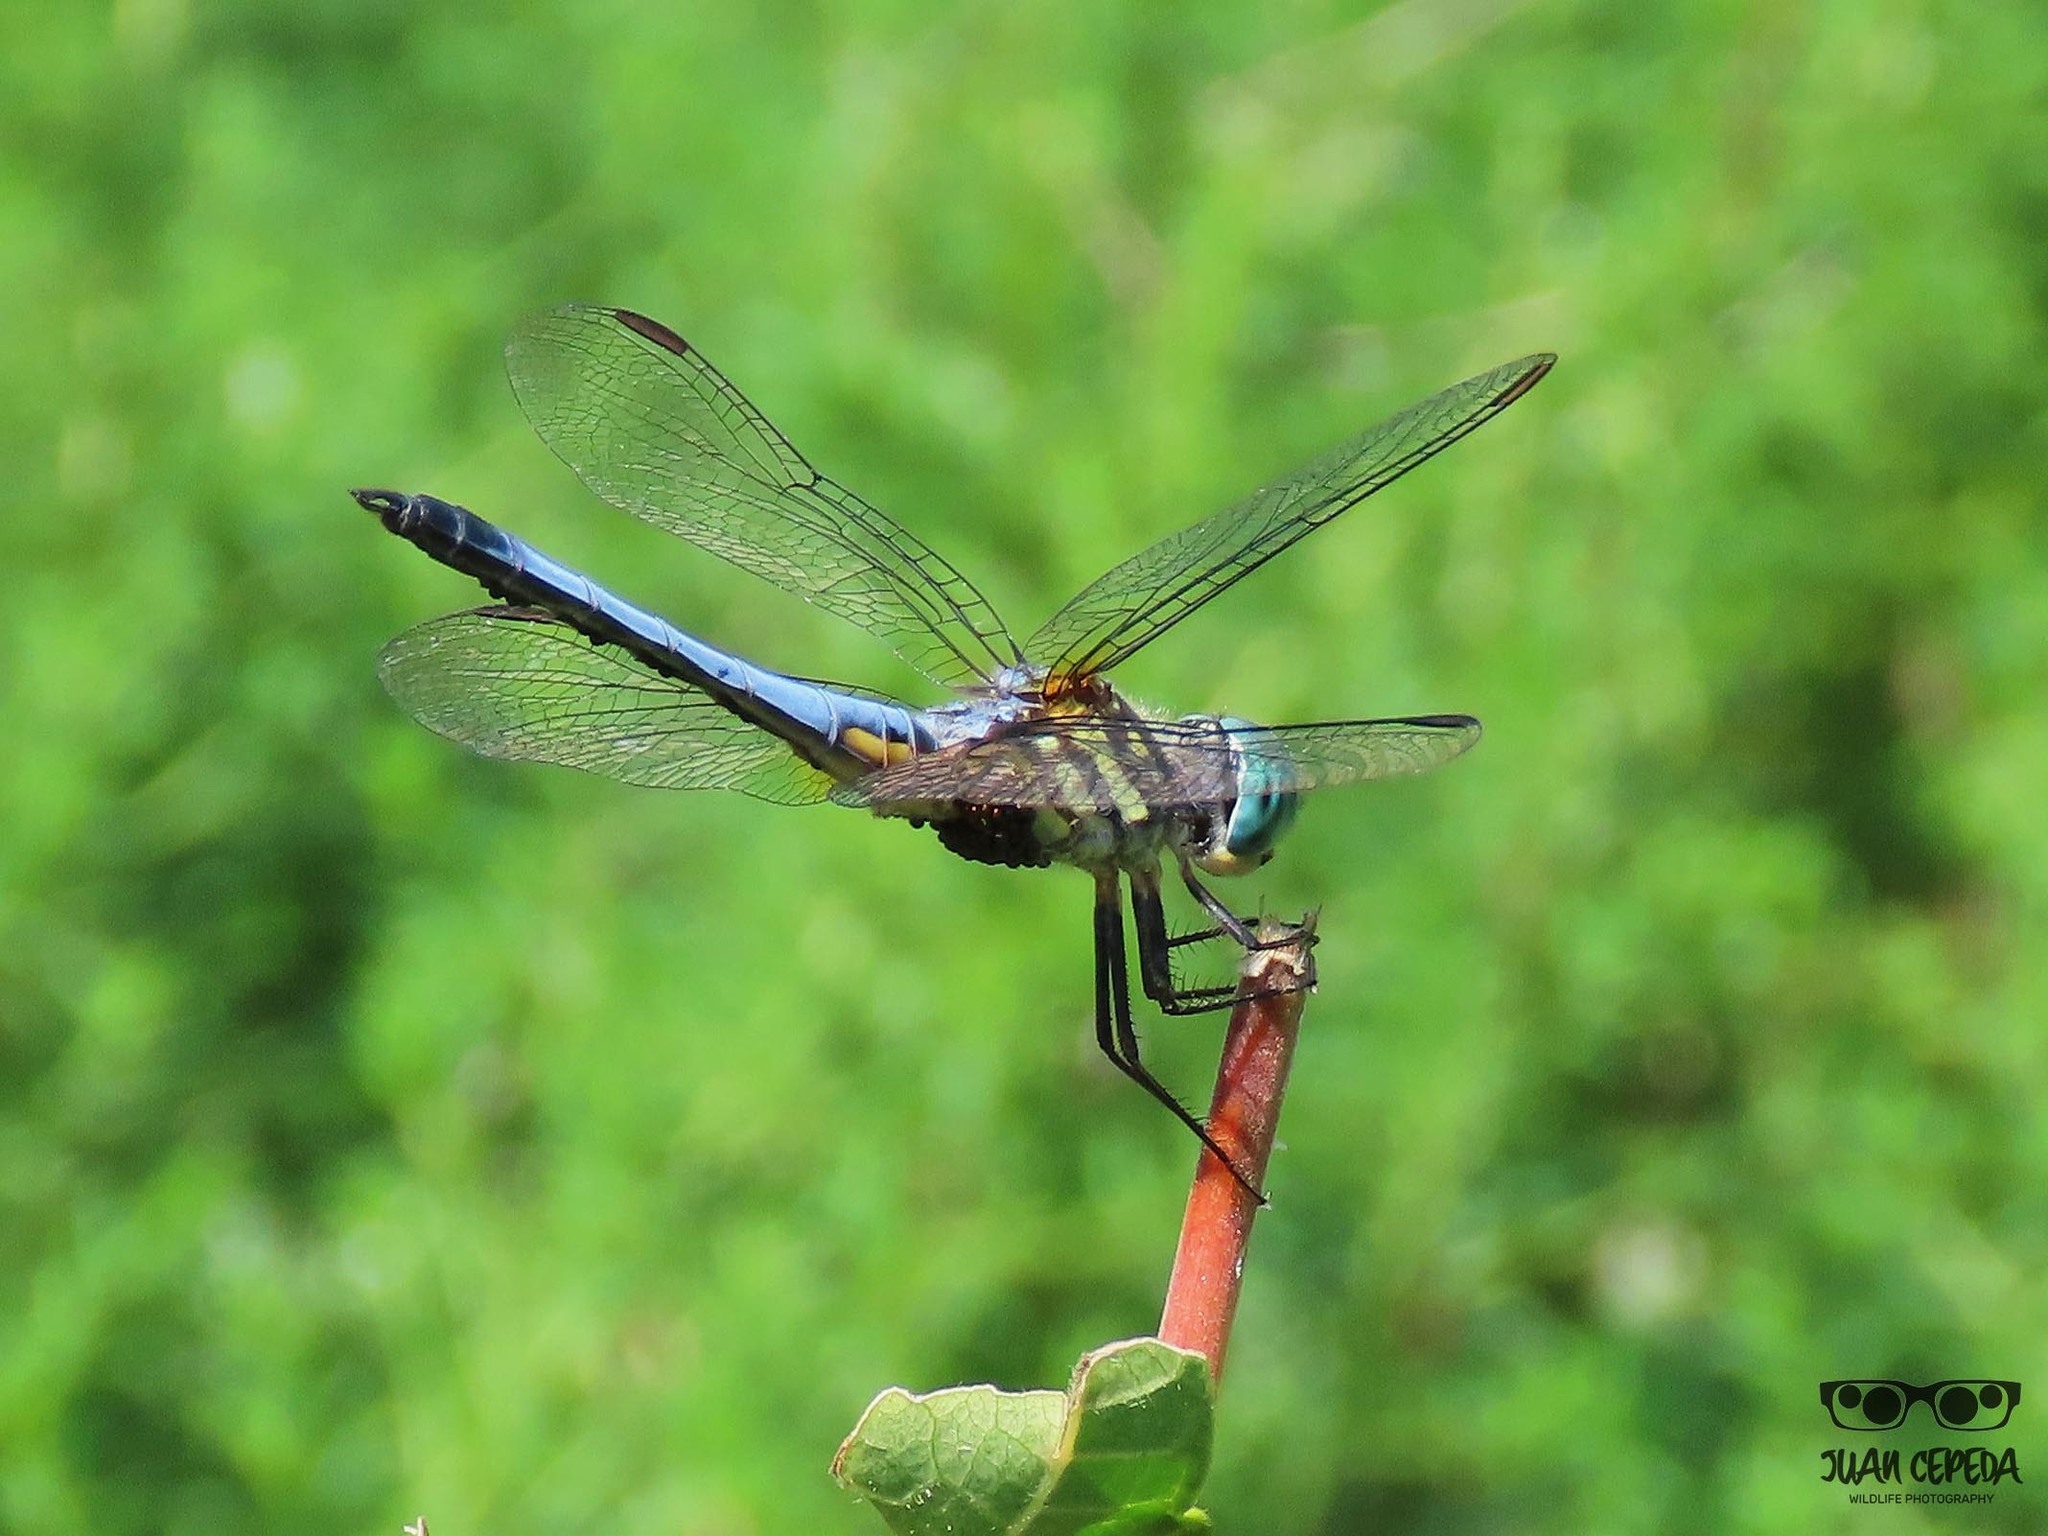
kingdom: Animalia
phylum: Arthropoda
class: Insecta
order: Odonata
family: Libellulidae
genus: Pachydiplax
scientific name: Pachydiplax longipennis
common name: Blue dasher
